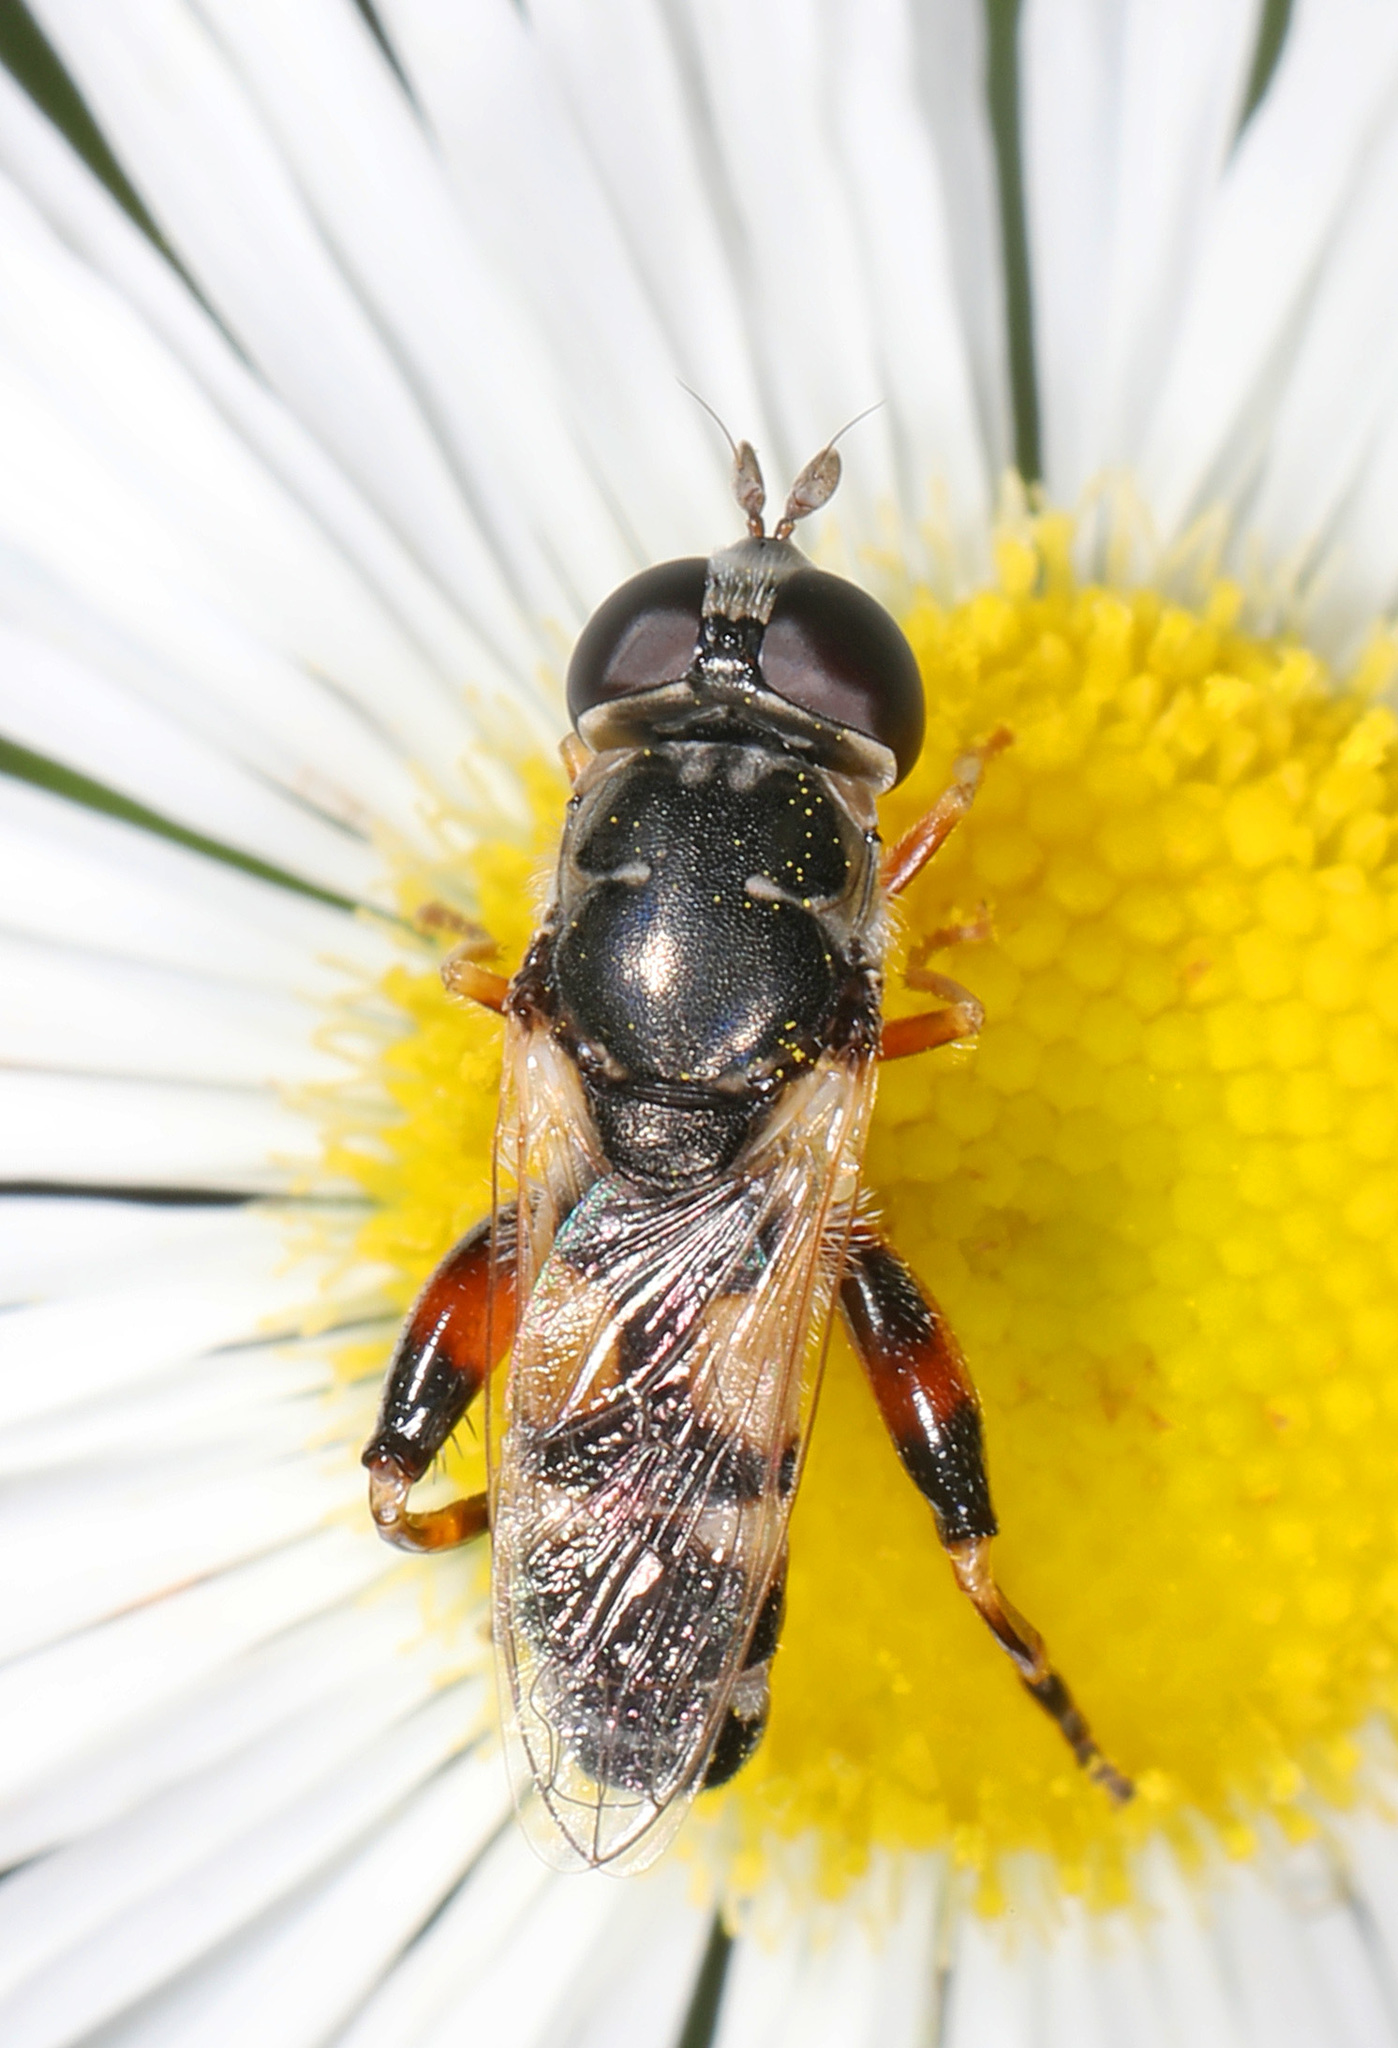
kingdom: Animalia
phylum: Arthropoda
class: Insecta
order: Diptera
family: Syrphidae
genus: Syritta
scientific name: Syritta flaviventris
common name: Syrphid fly
